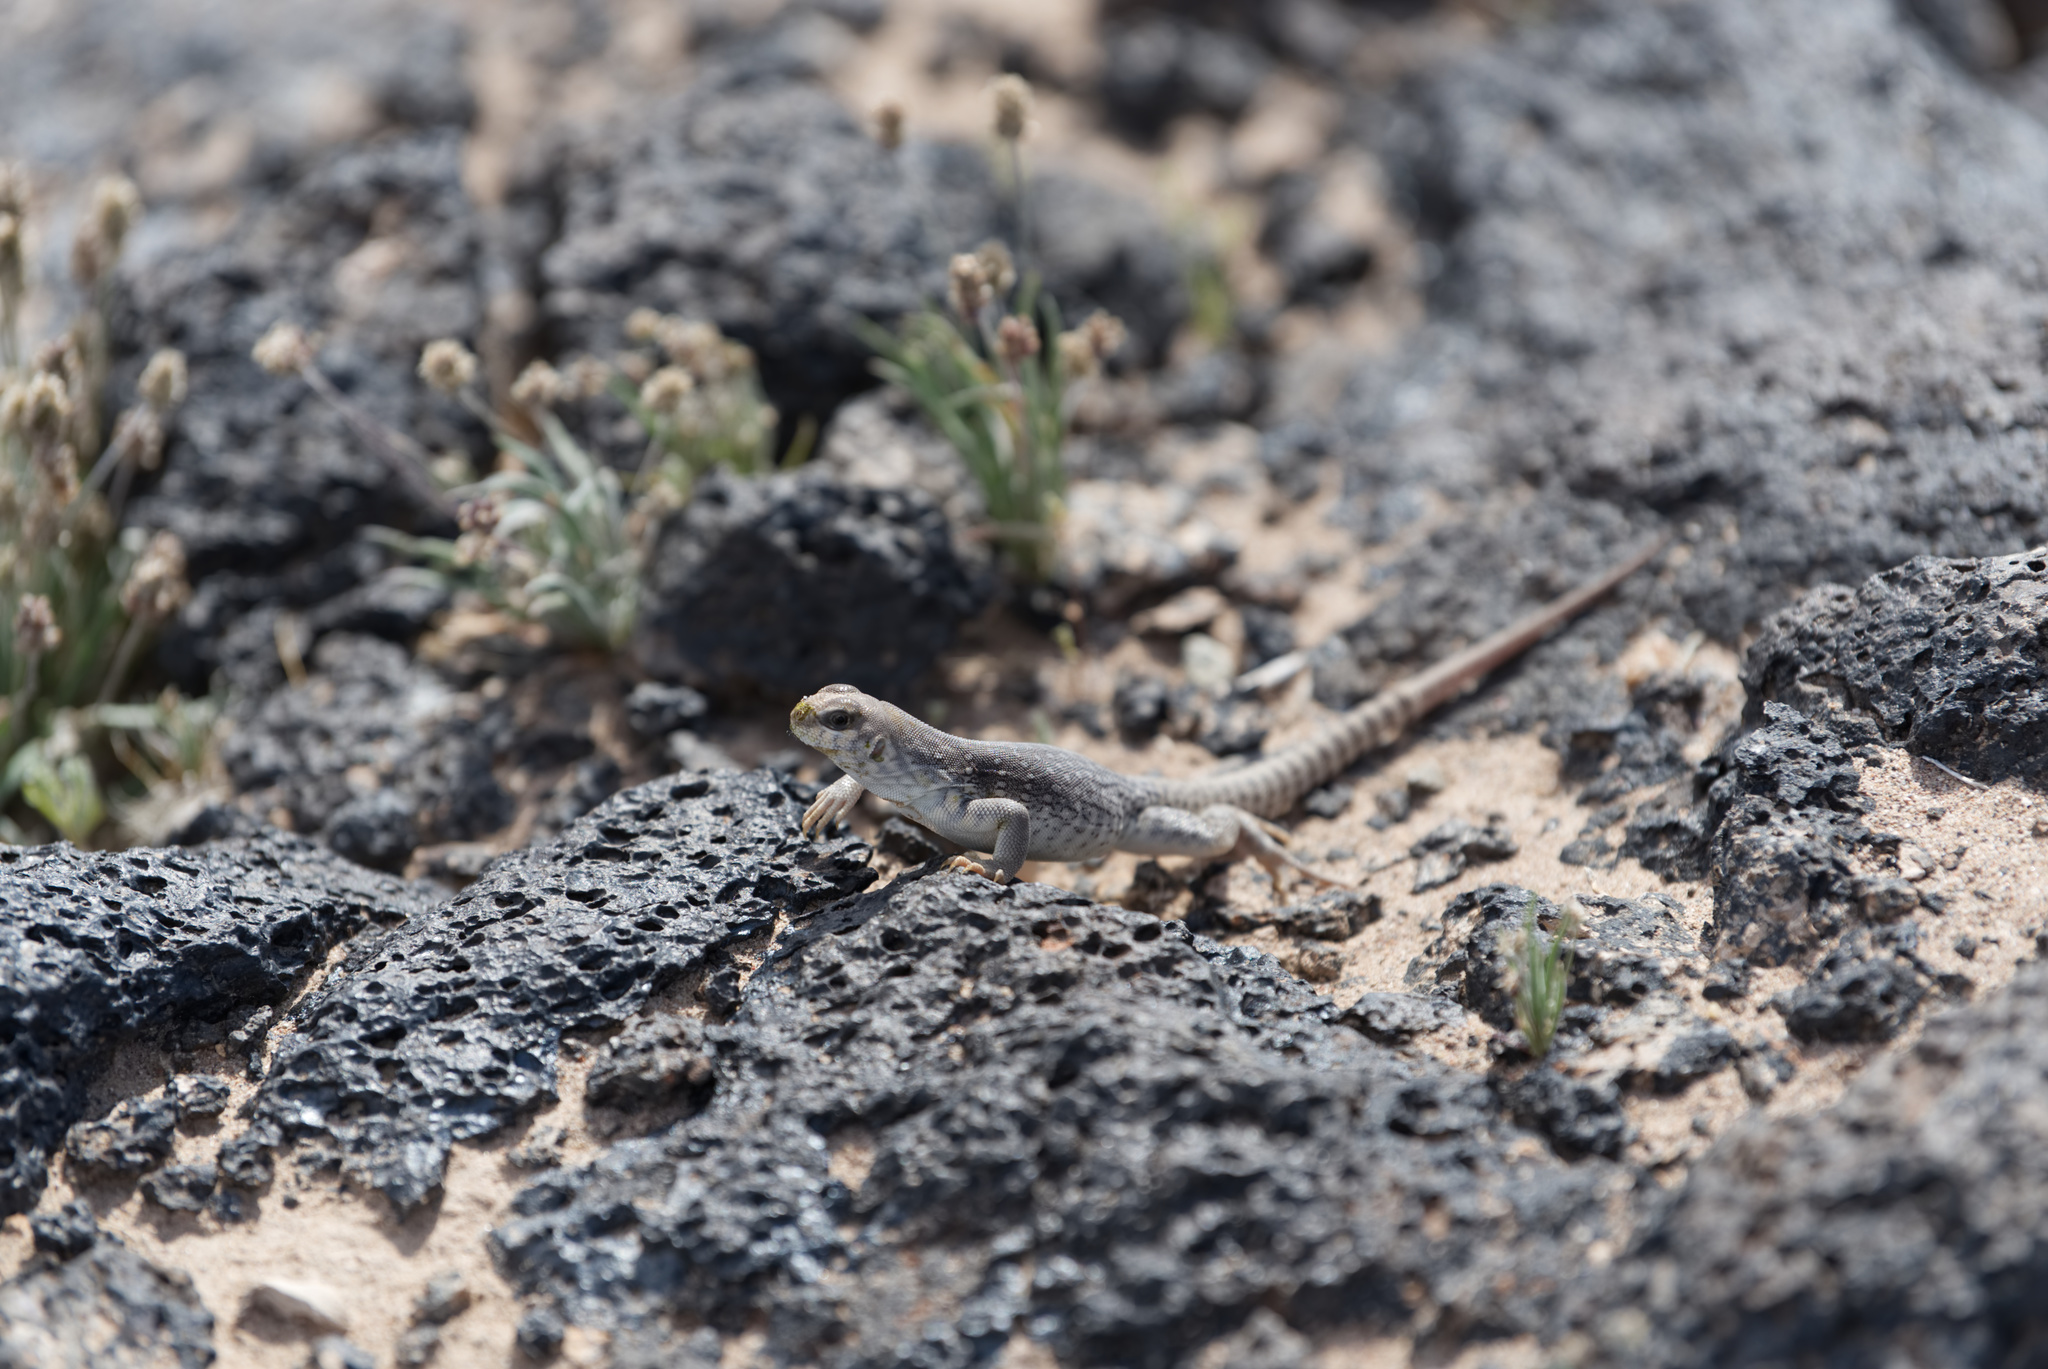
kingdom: Animalia
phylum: Chordata
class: Squamata
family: Iguanidae
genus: Dipsosaurus
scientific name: Dipsosaurus dorsalis
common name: Desert iguana
